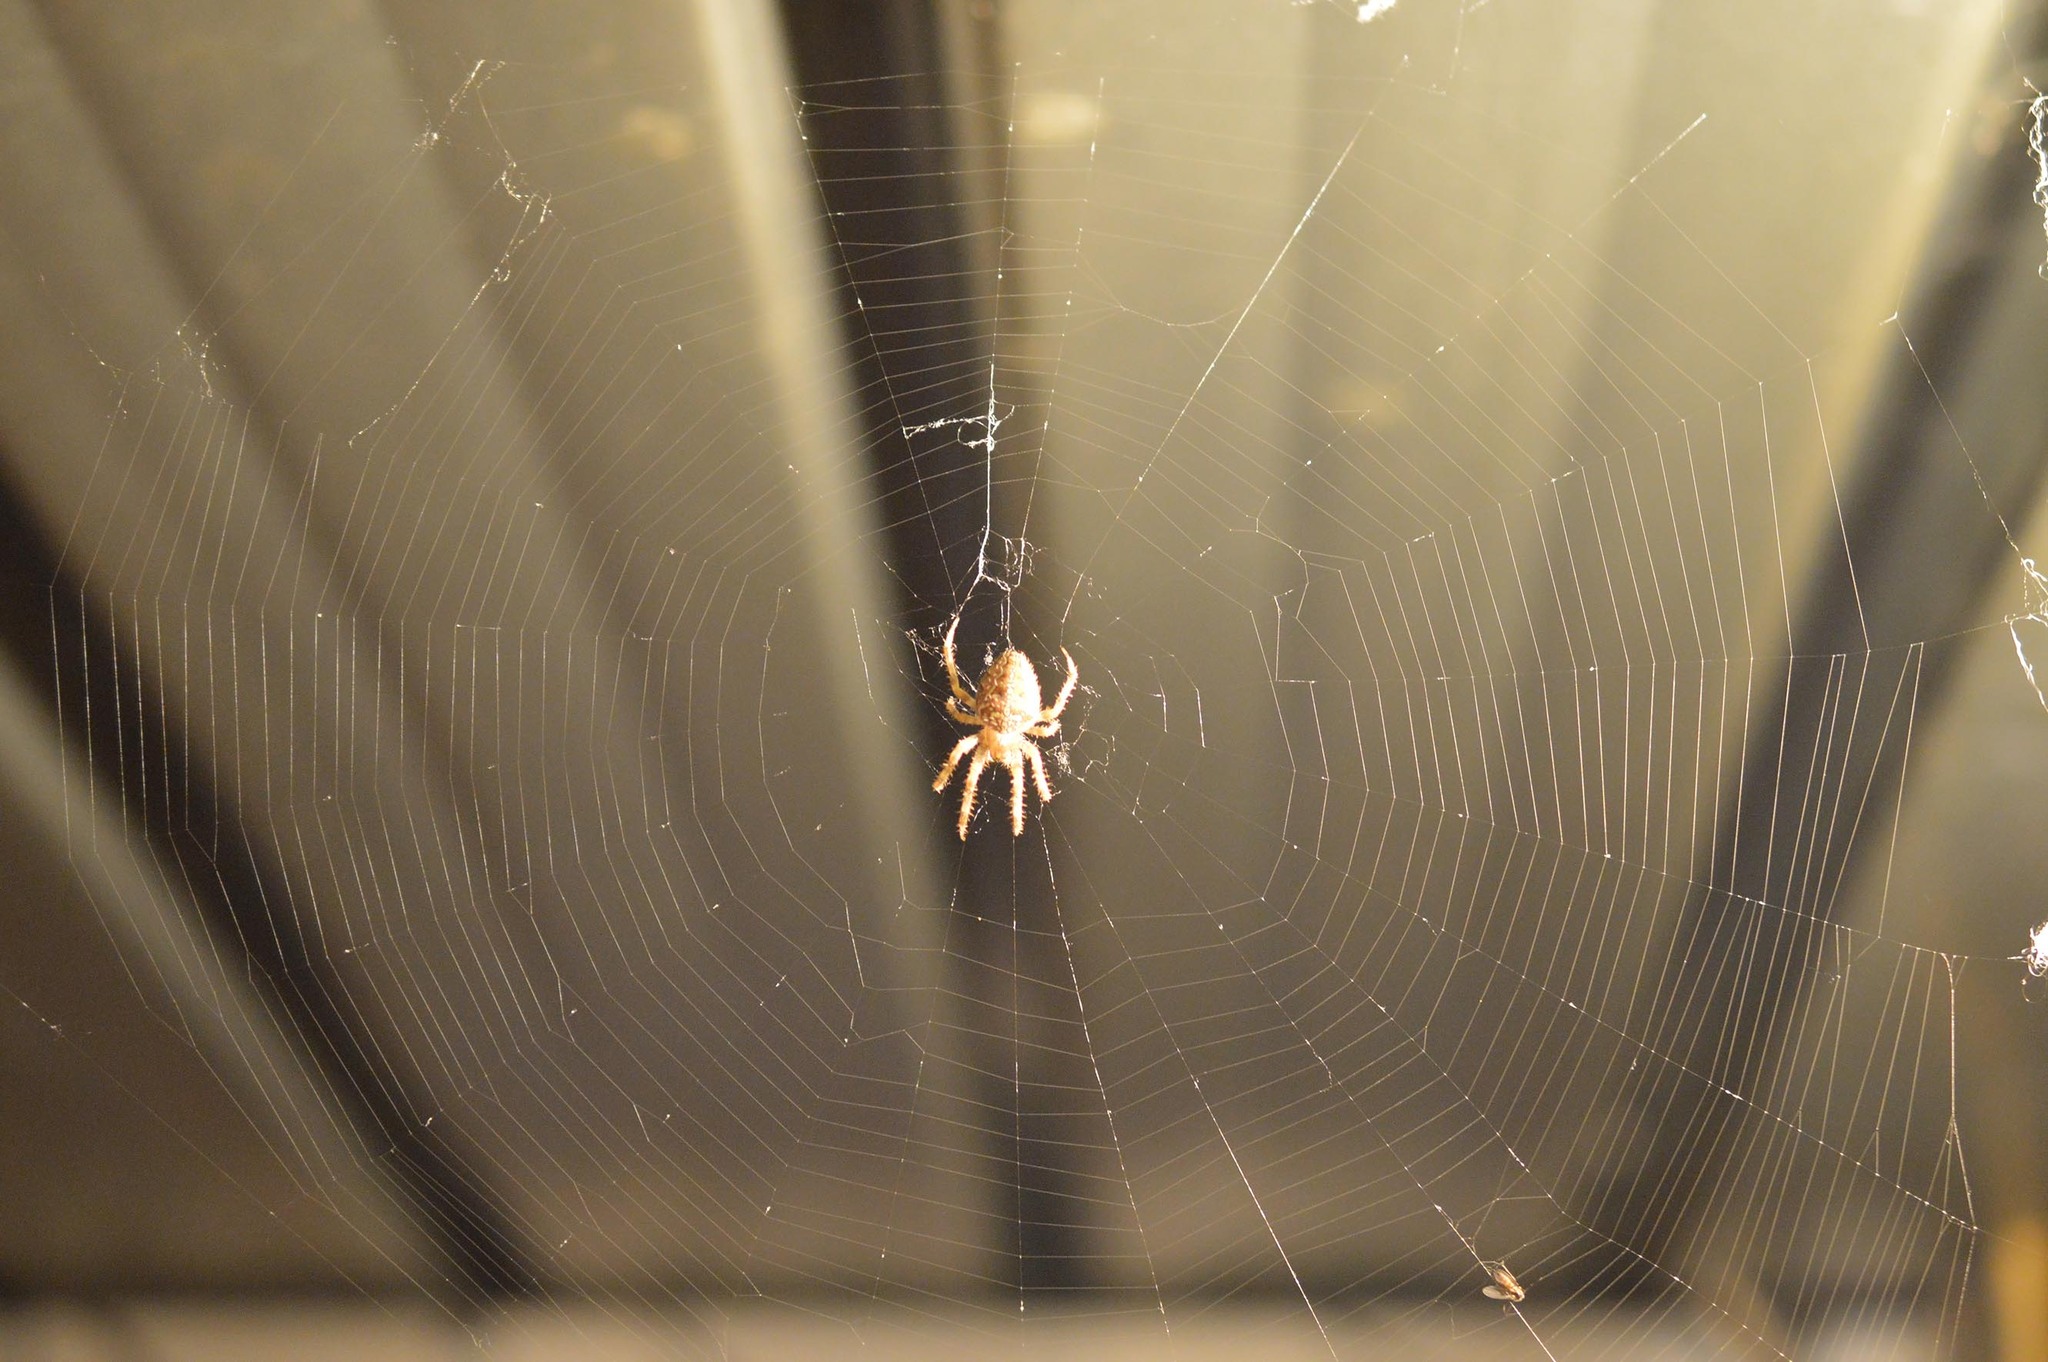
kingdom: Animalia
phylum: Arthropoda
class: Arachnida
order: Araneae
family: Araneidae
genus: Araneus
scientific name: Araneus diadematus
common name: Cross orbweaver
